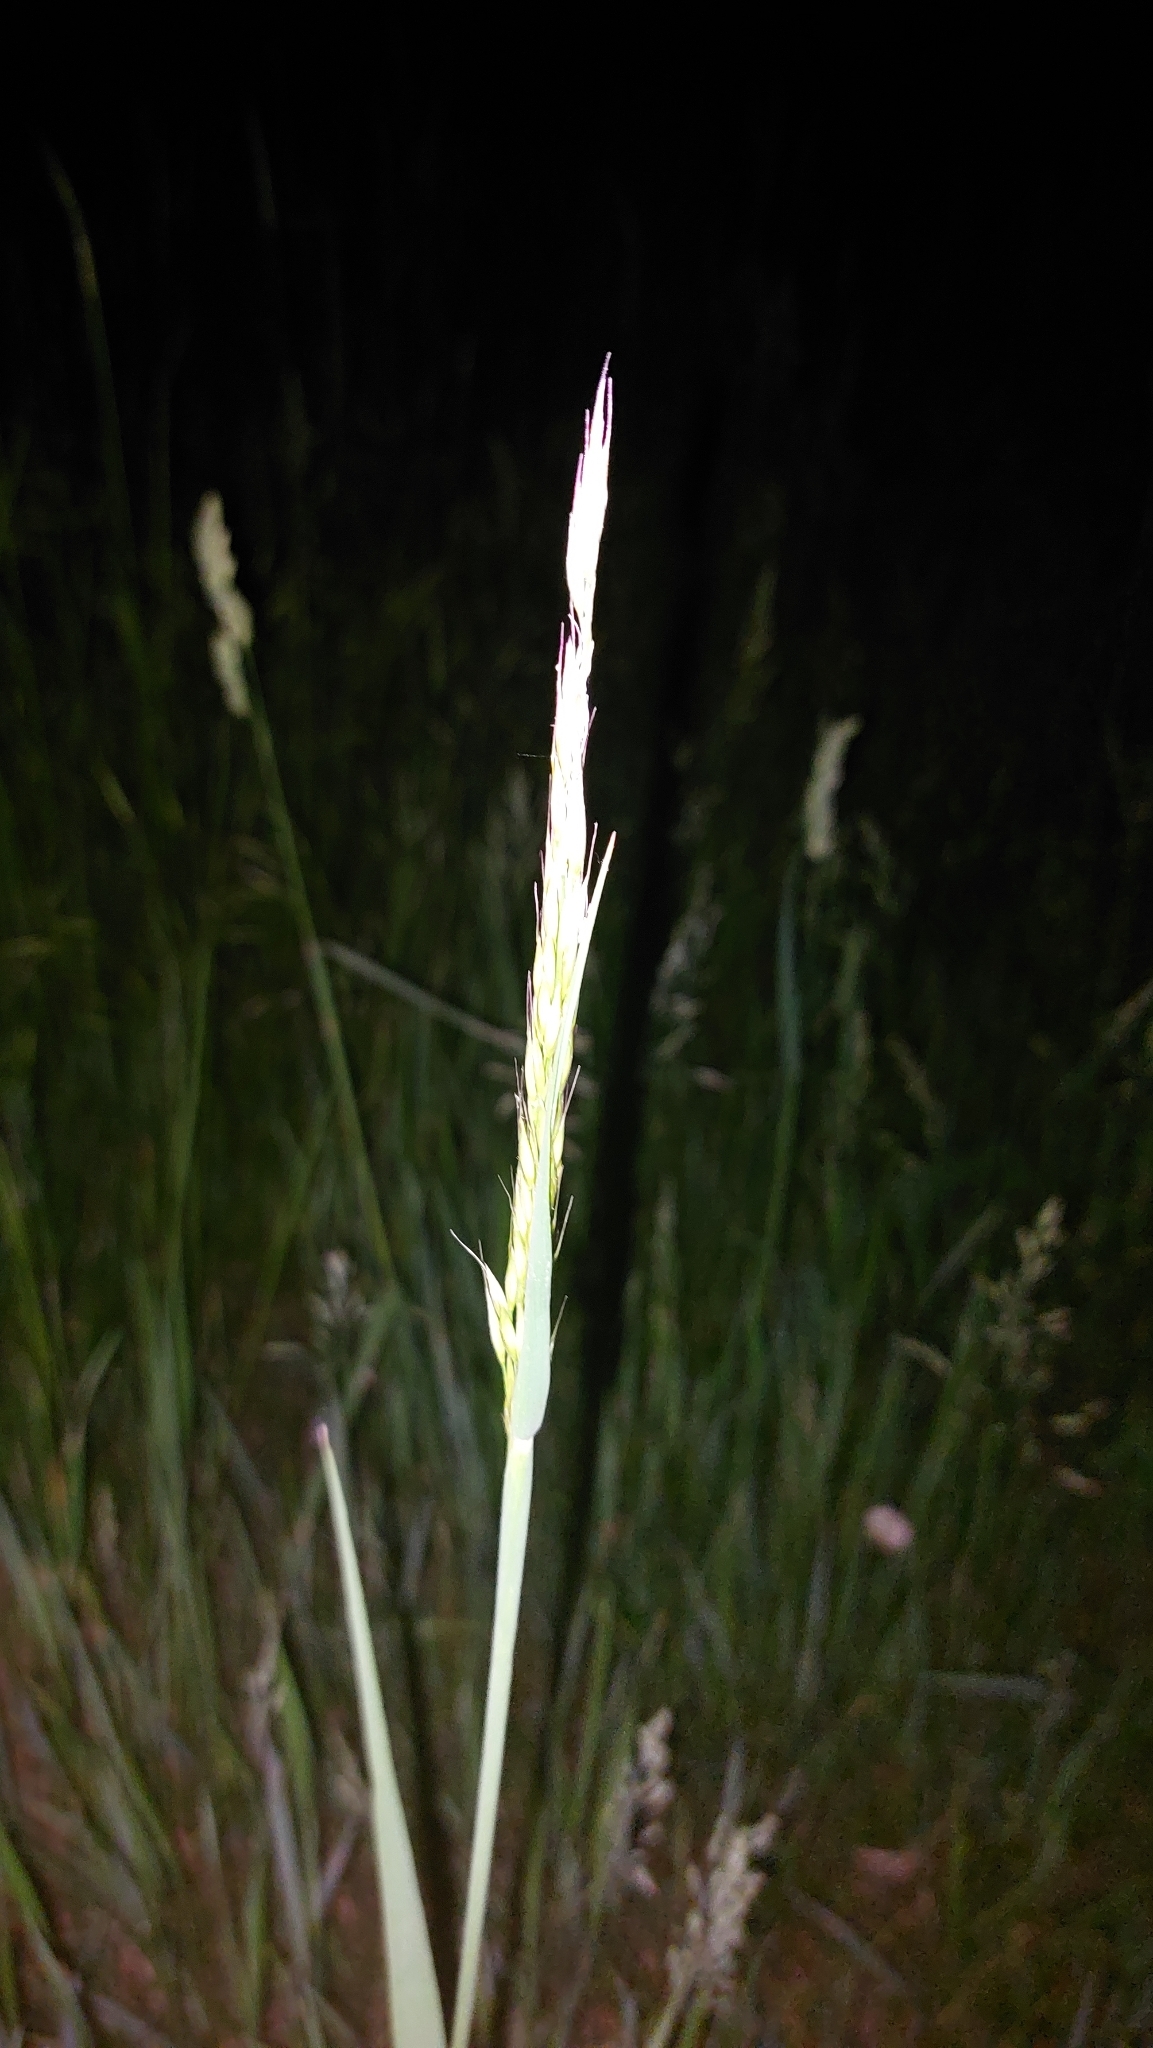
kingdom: Plantae
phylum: Tracheophyta
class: Liliopsida
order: Poales
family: Poaceae
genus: Arrhenatherum
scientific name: Arrhenatherum elatius
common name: Tall oatgrass
